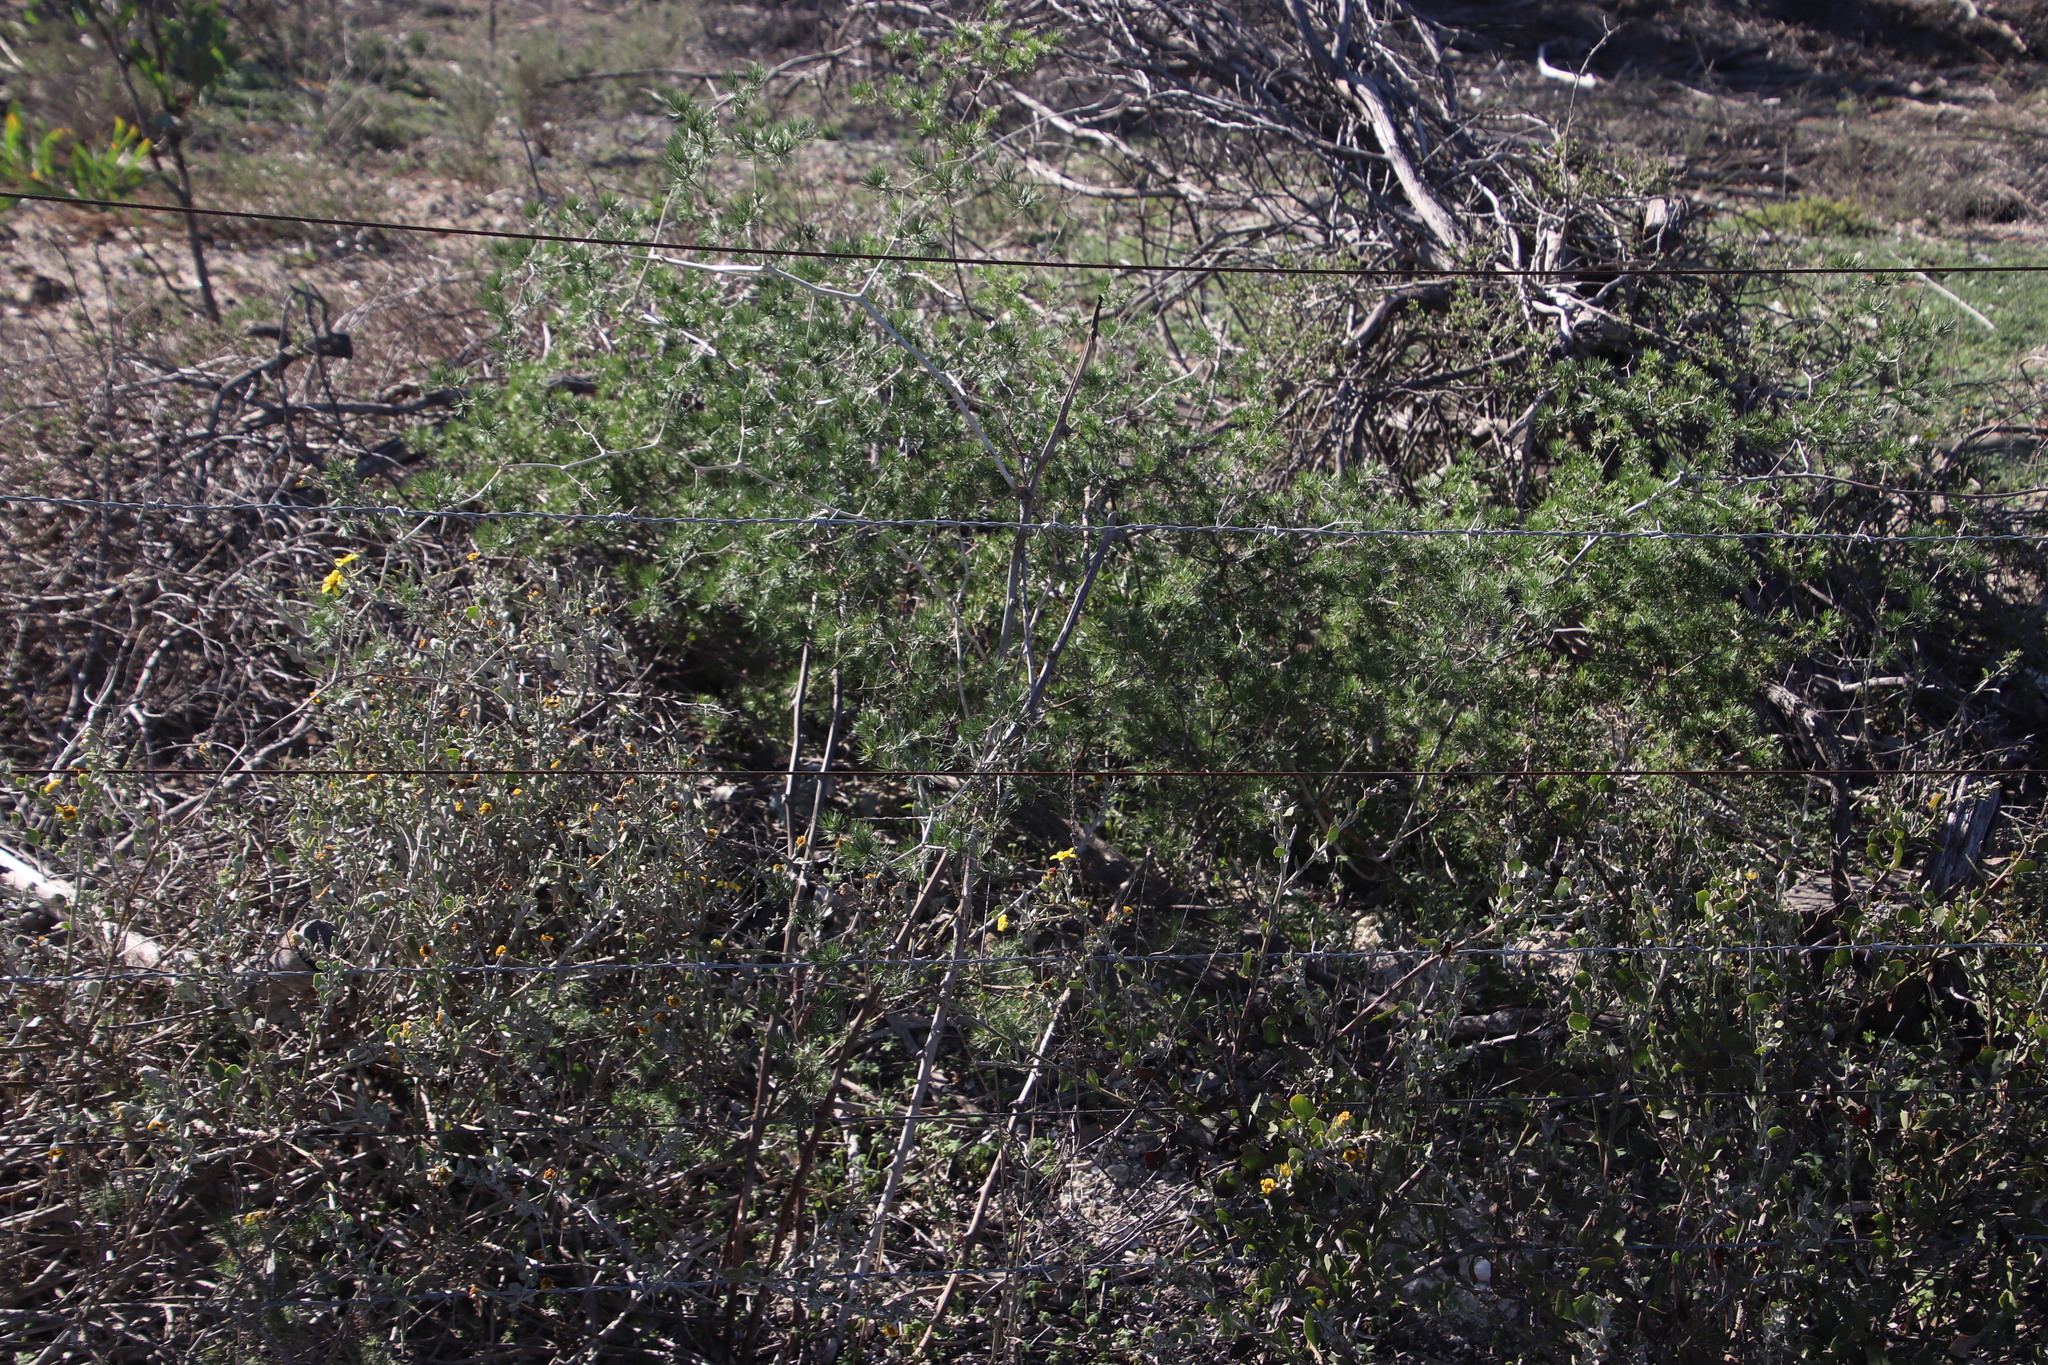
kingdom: Plantae
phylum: Tracheophyta
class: Liliopsida
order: Asparagales
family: Asparagaceae
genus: Asparagus
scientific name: Asparagus exuvialis
